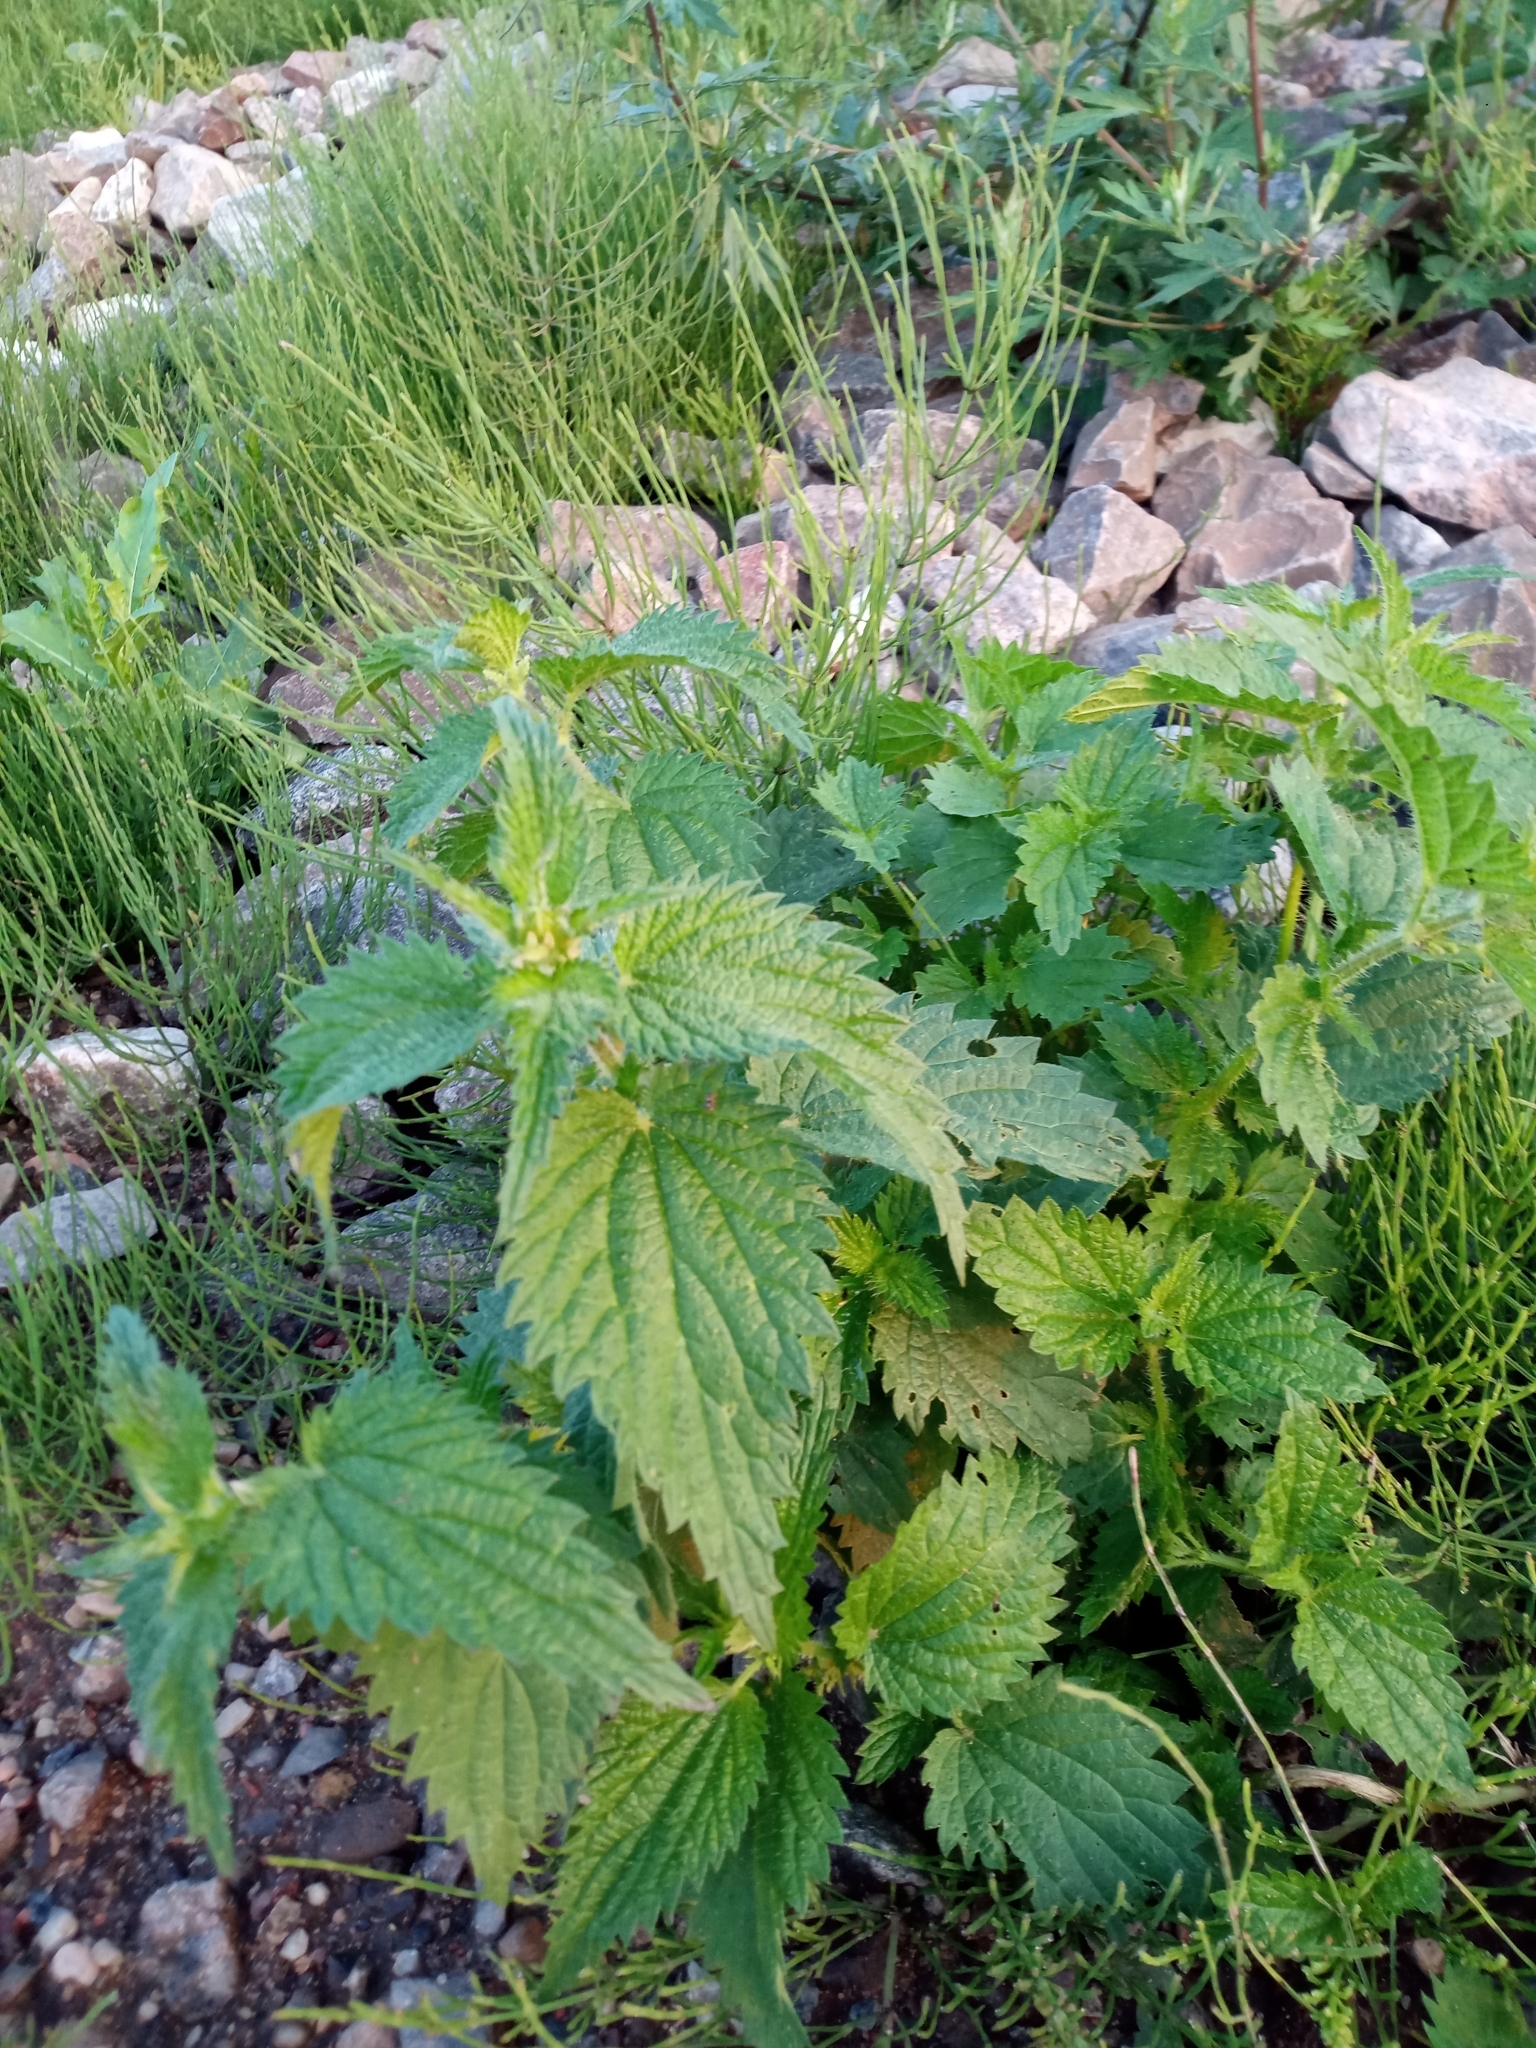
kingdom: Plantae
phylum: Tracheophyta
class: Magnoliopsida
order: Rosales
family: Urticaceae
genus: Urtica
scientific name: Urtica dioica
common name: Common nettle
